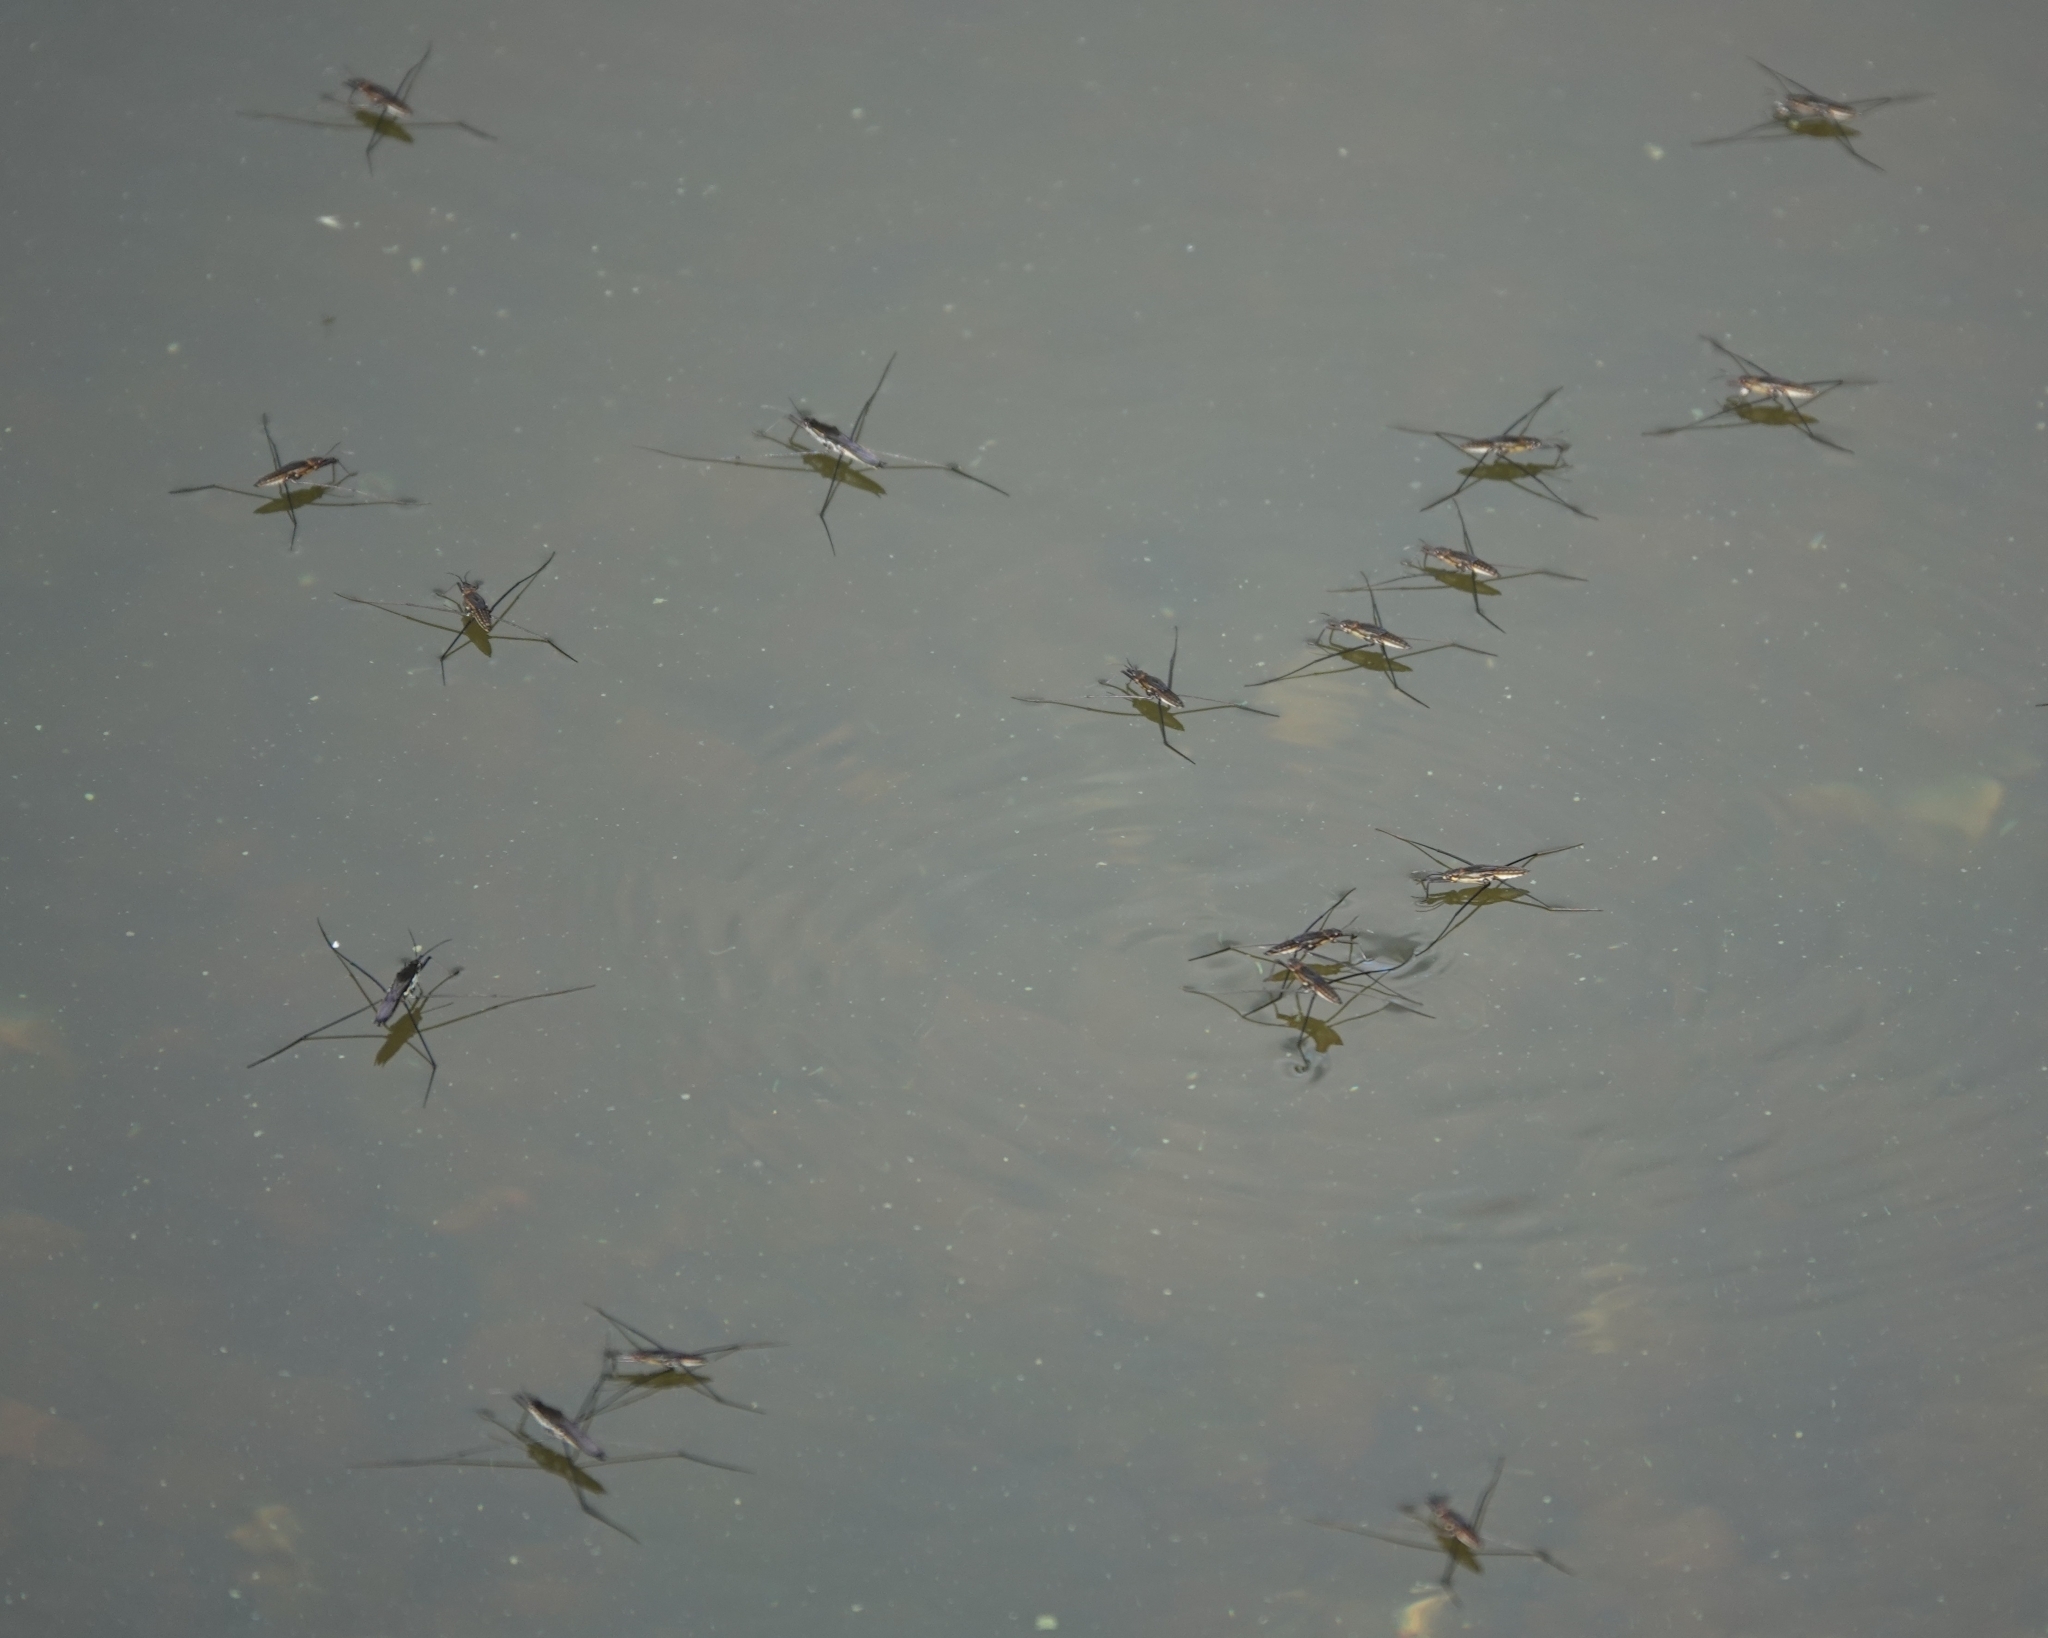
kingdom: Animalia
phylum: Arthropoda
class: Insecta
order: Hemiptera
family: Gerridae
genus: Aquarius
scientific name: Aquarius paludum
